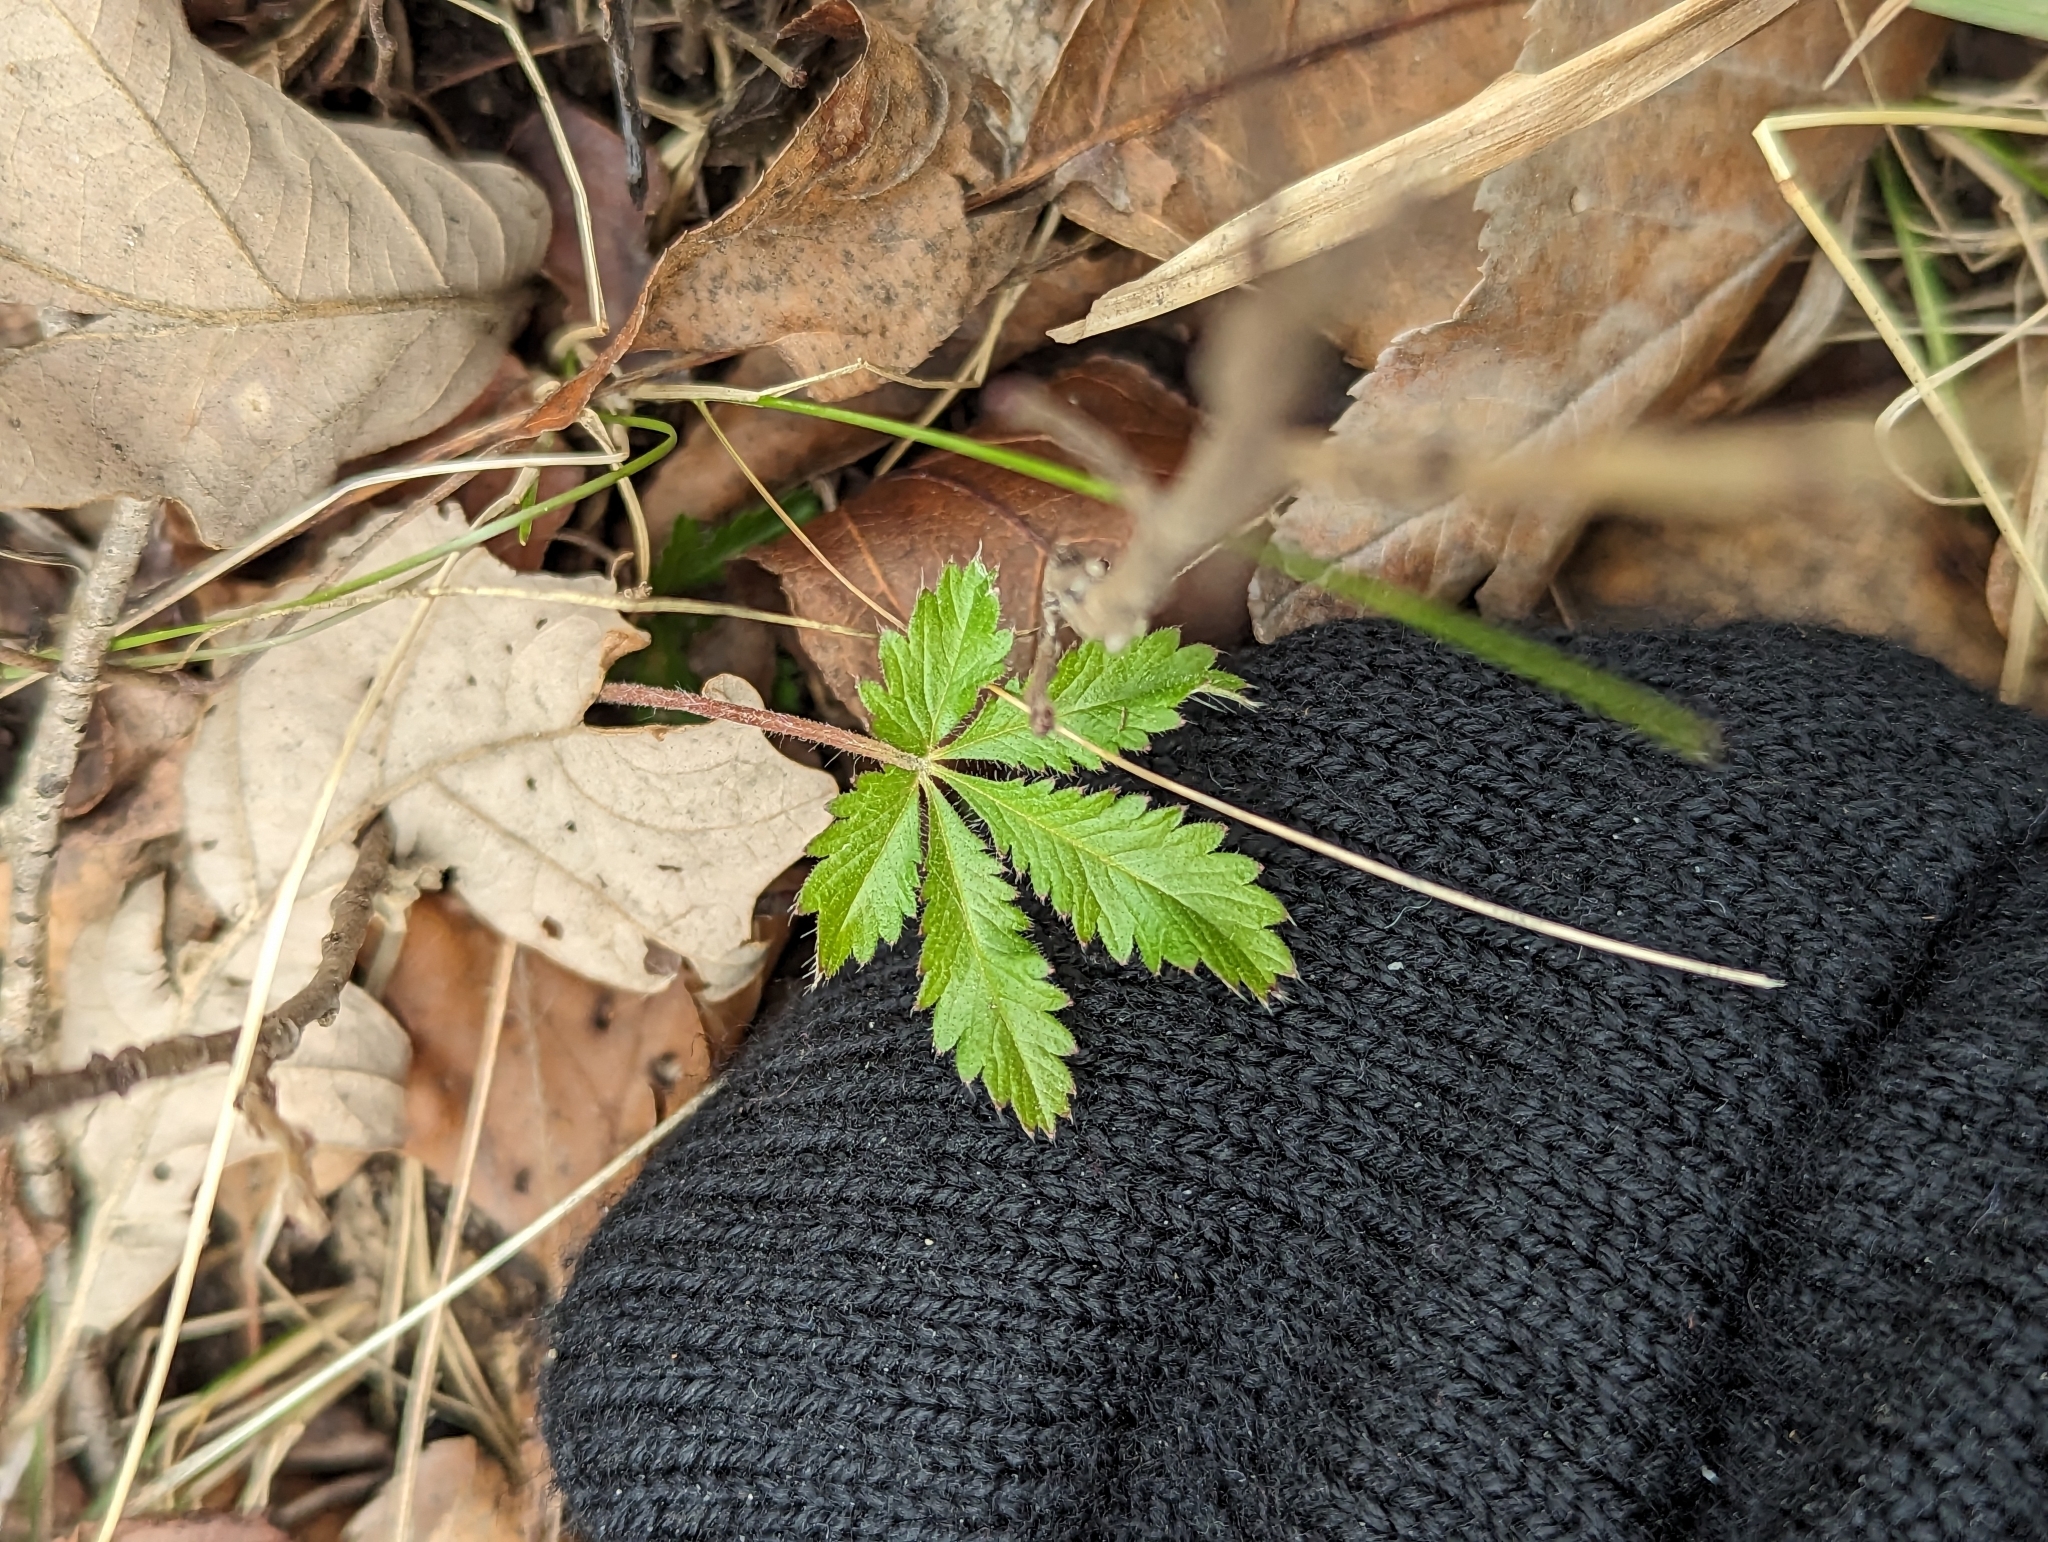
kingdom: Plantae
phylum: Tracheophyta
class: Magnoliopsida
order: Rosales
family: Rosaceae
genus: Potentilla
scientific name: Potentilla recta
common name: Sulphur cinquefoil
